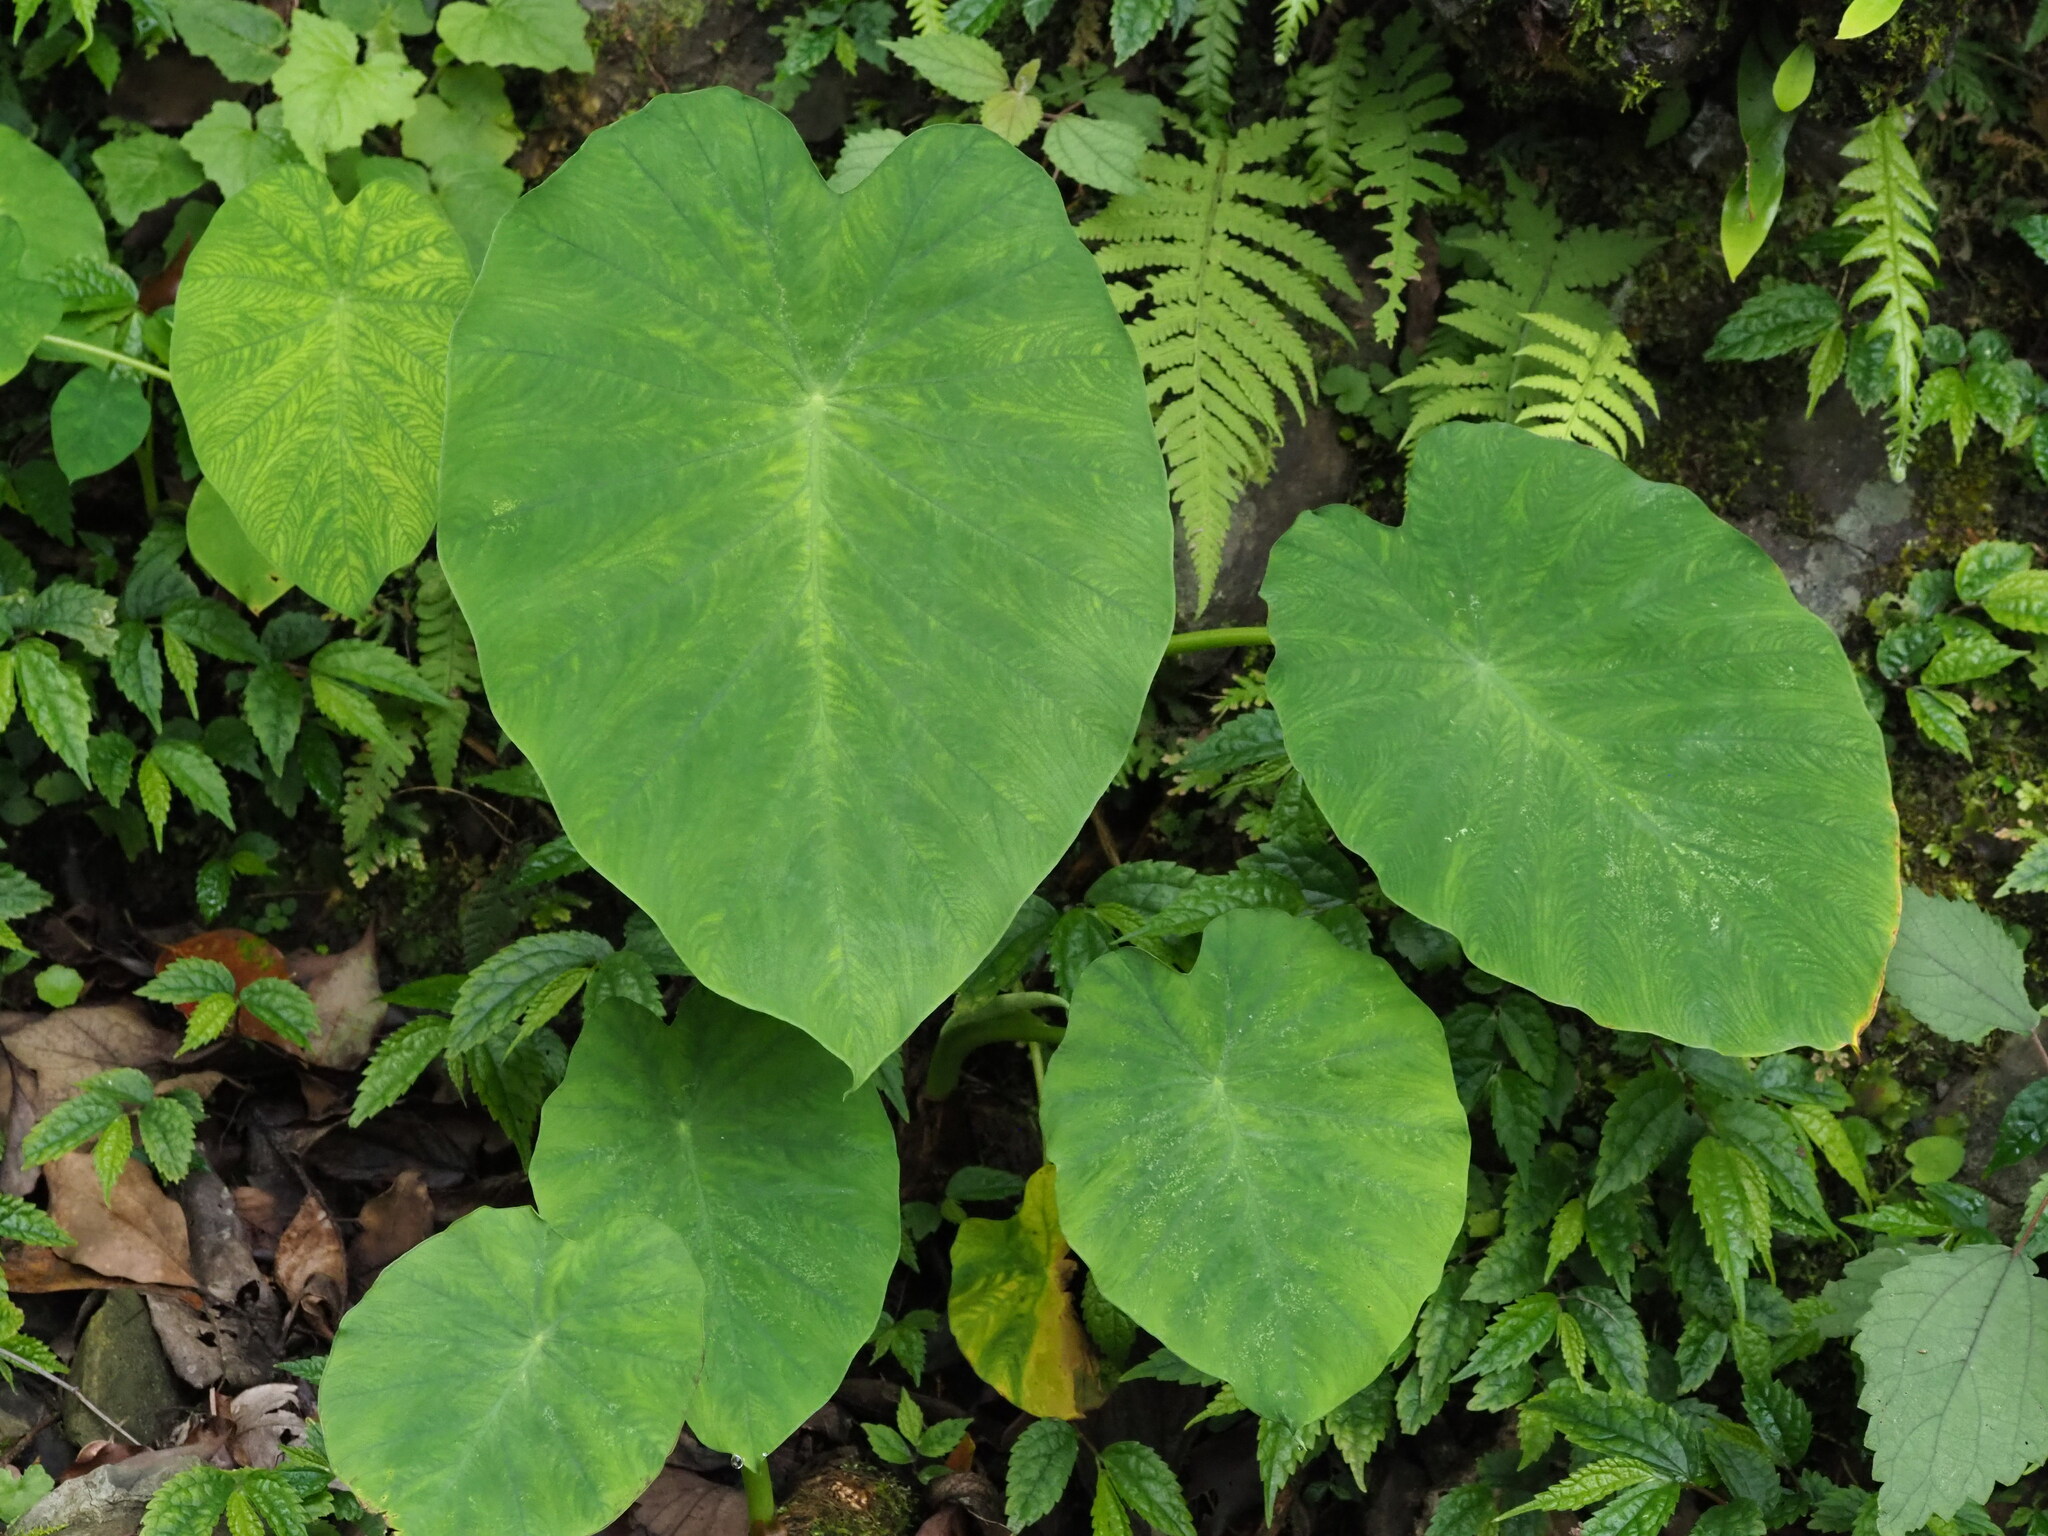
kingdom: Plantae
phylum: Tracheophyta
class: Liliopsida
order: Alismatales
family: Araceae
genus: Colocasia
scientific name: Colocasia esculenta
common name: Taro
